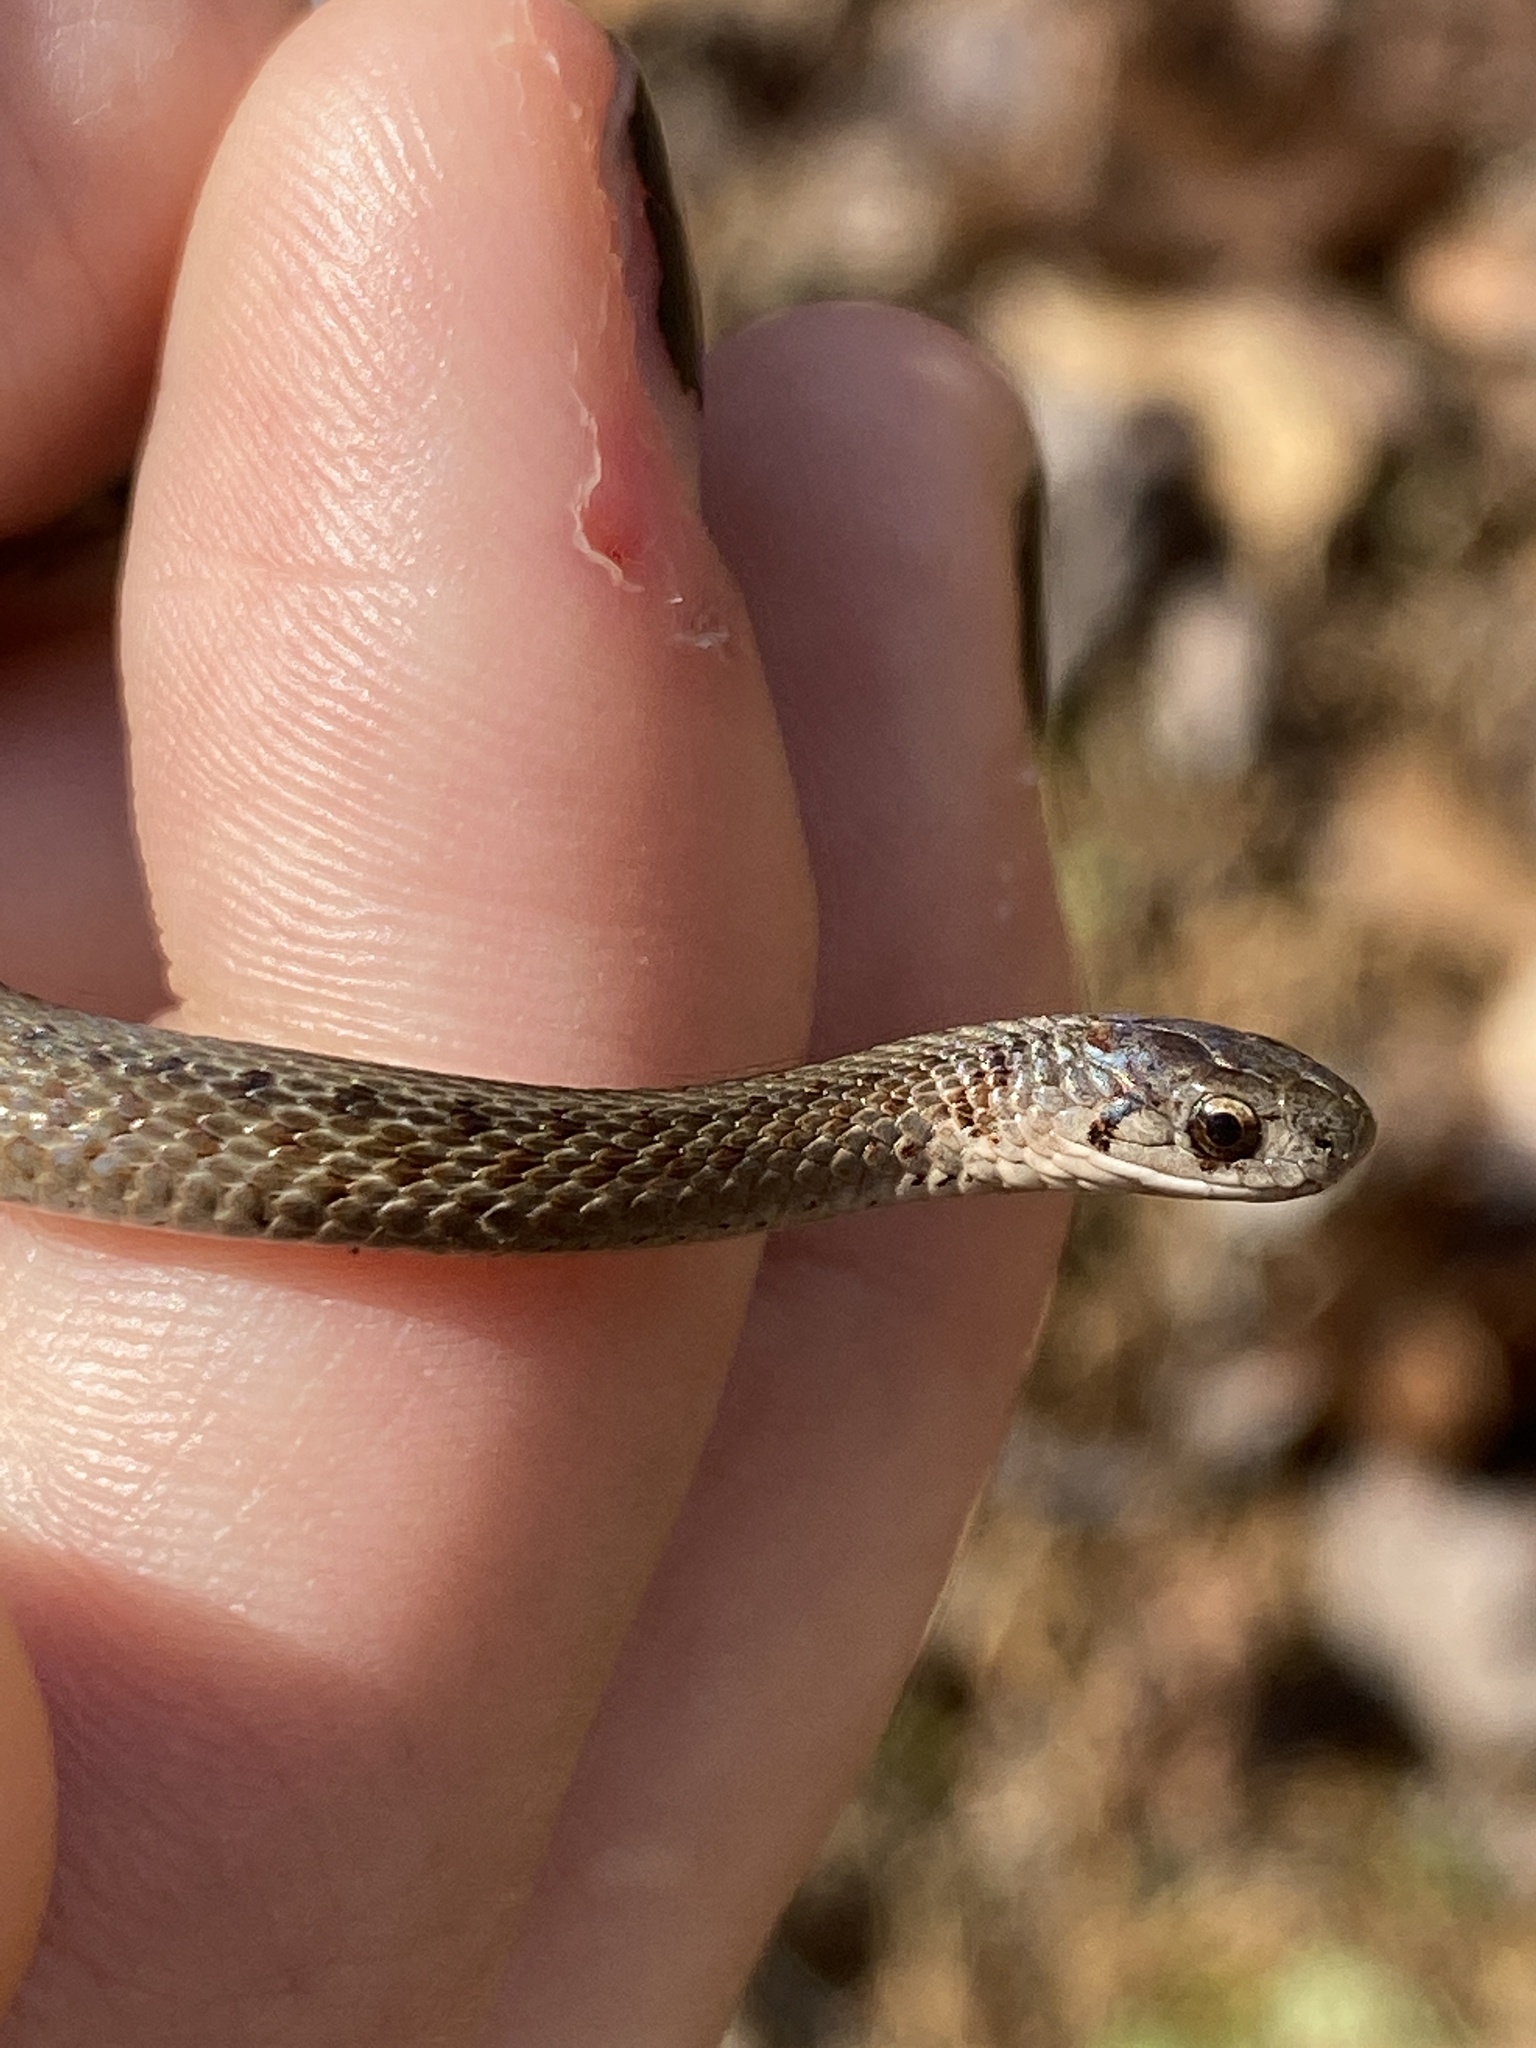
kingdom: Animalia
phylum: Chordata
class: Squamata
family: Colubridae
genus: Storeria
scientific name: Storeria dekayi
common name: (dekay’s) brown snake
